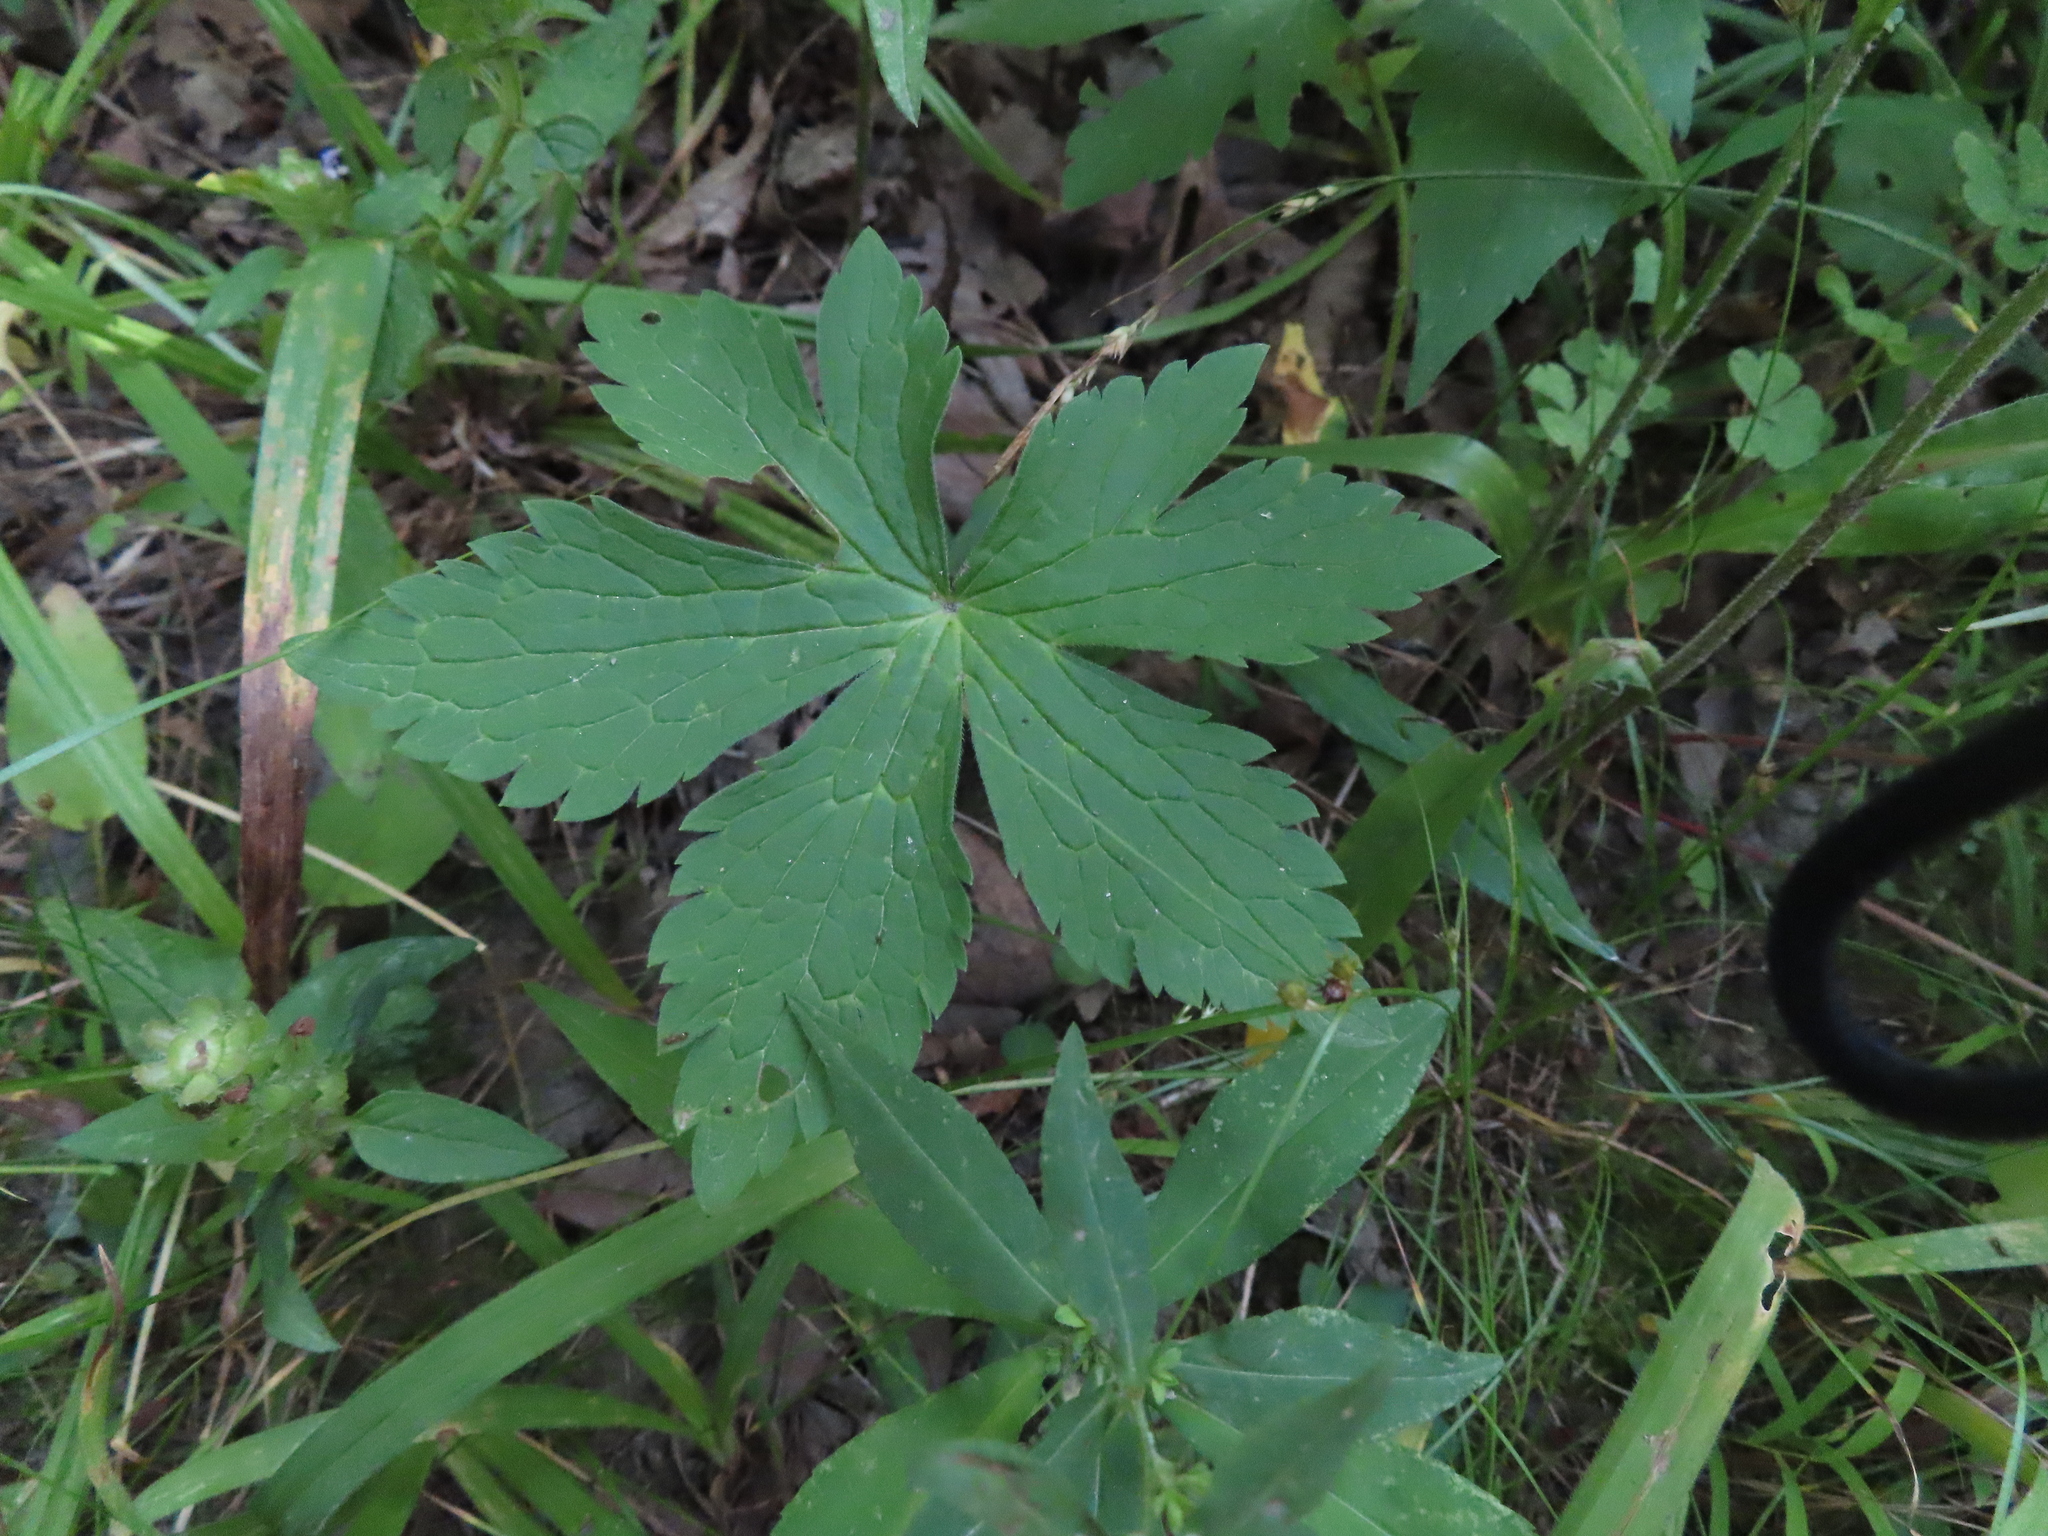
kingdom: Plantae
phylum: Tracheophyta
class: Magnoliopsida
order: Geraniales
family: Geraniaceae
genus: Geranium
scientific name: Geranium maculatum
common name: Spotted geranium
